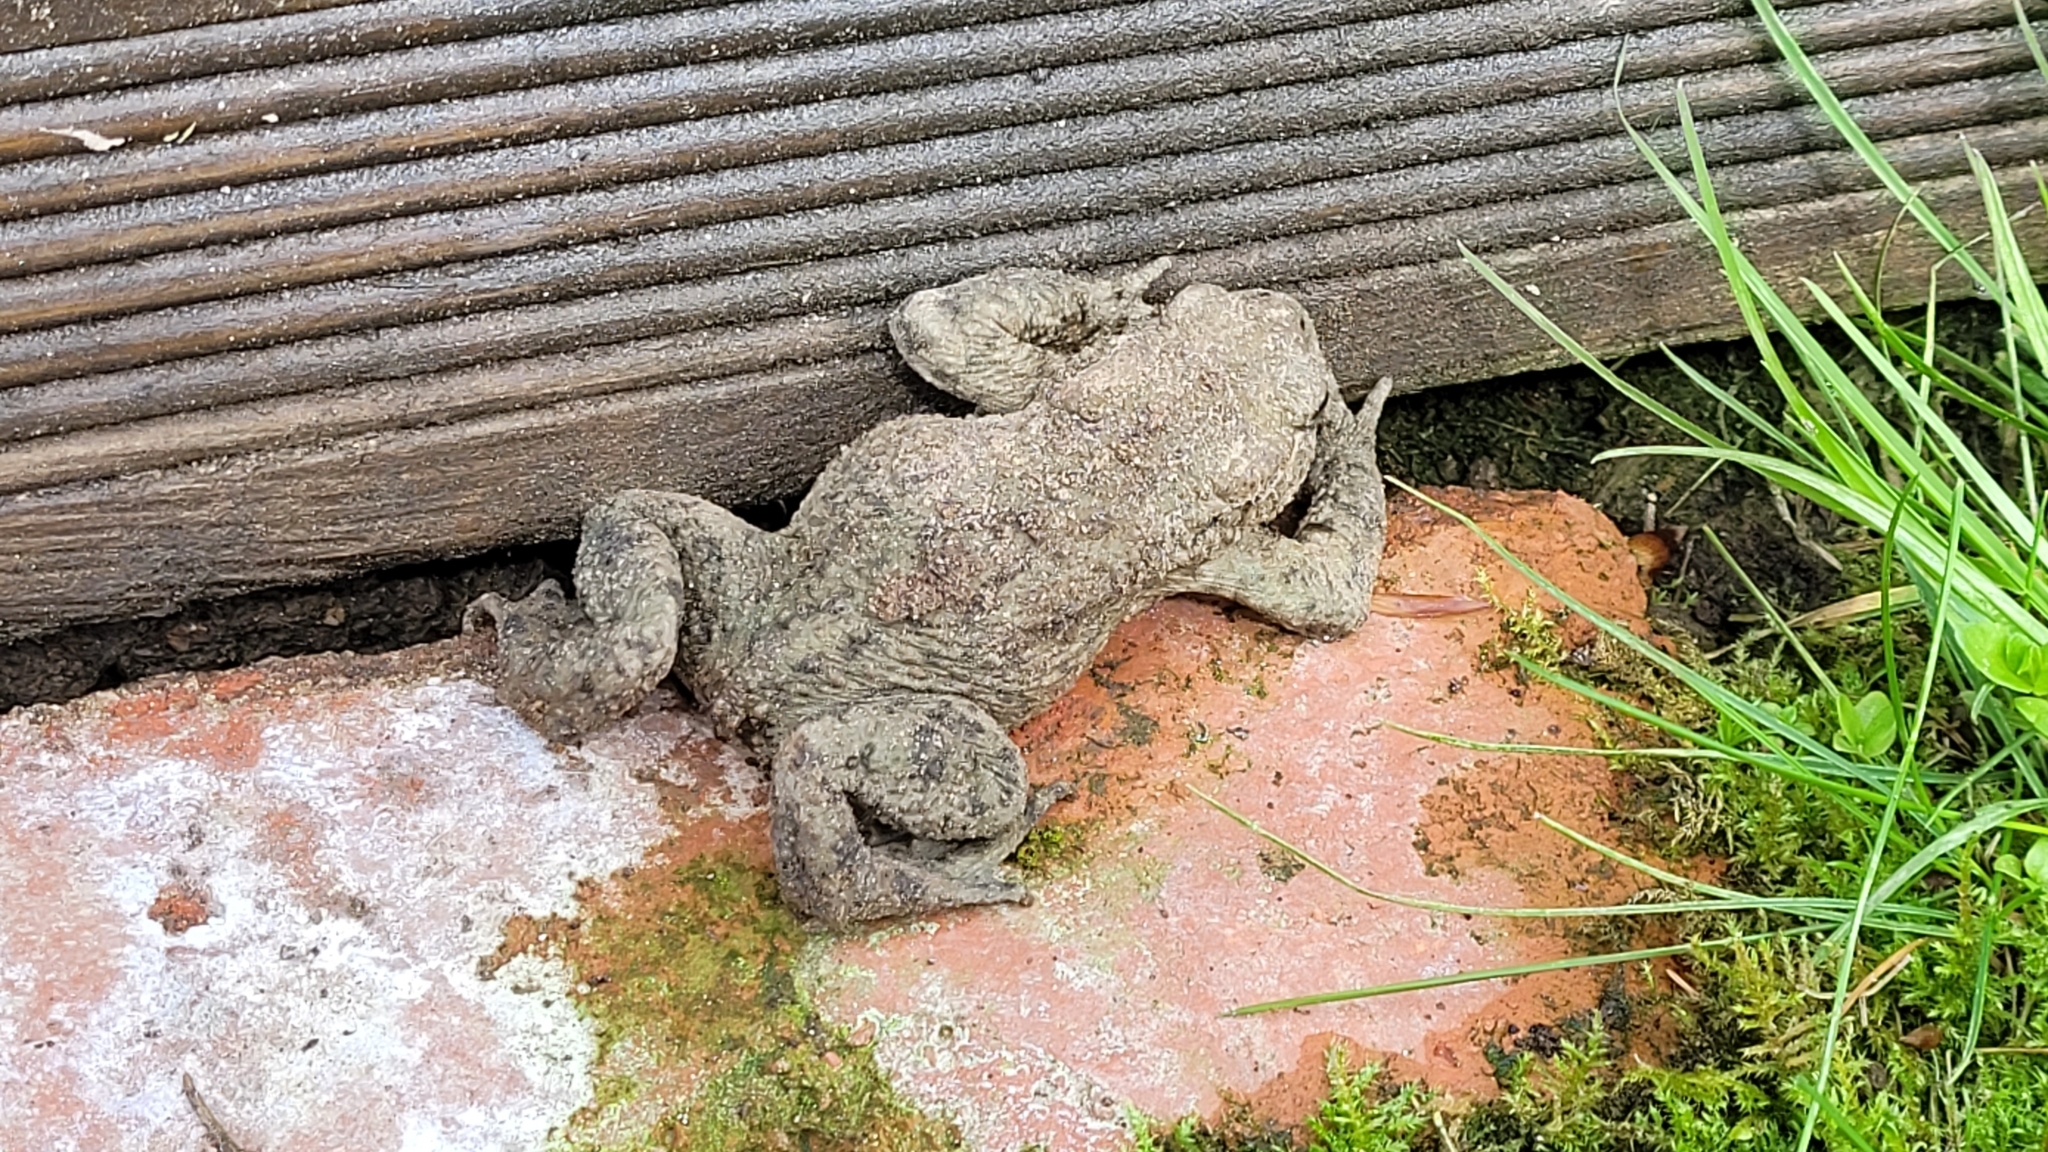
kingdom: Animalia
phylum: Chordata
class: Amphibia
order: Anura
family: Bufonidae
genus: Bufo
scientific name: Bufo bufo
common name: Common toad
